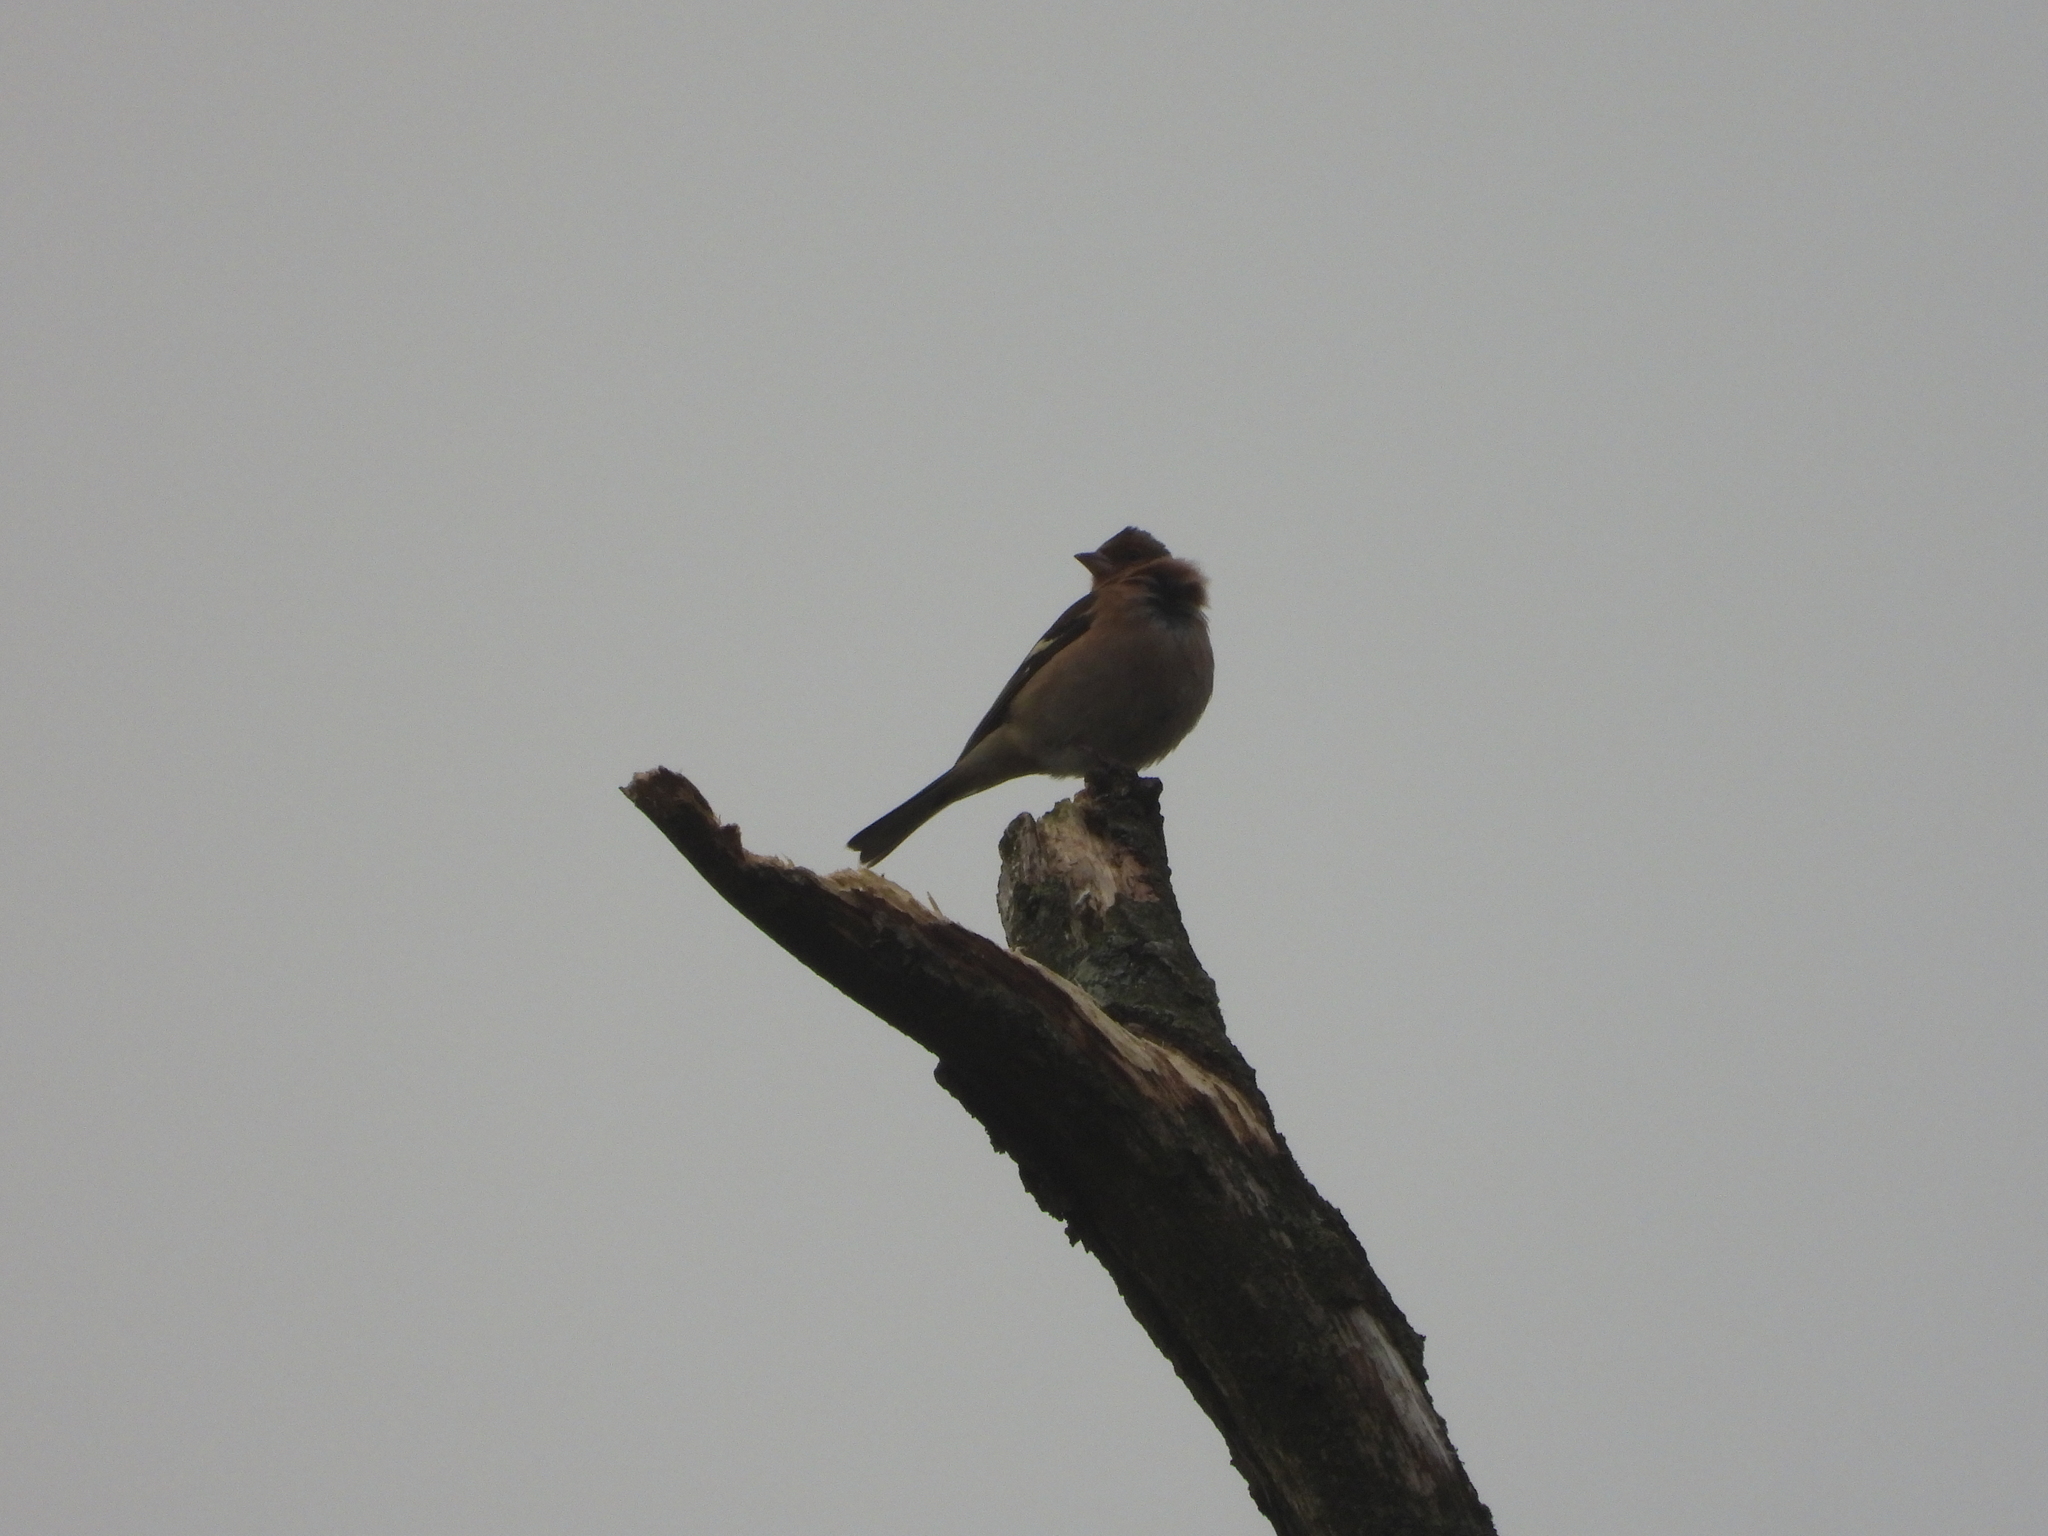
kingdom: Animalia
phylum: Chordata
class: Aves
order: Passeriformes
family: Fringillidae
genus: Fringilla
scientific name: Fringilla coelebs
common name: Common chaffinch
